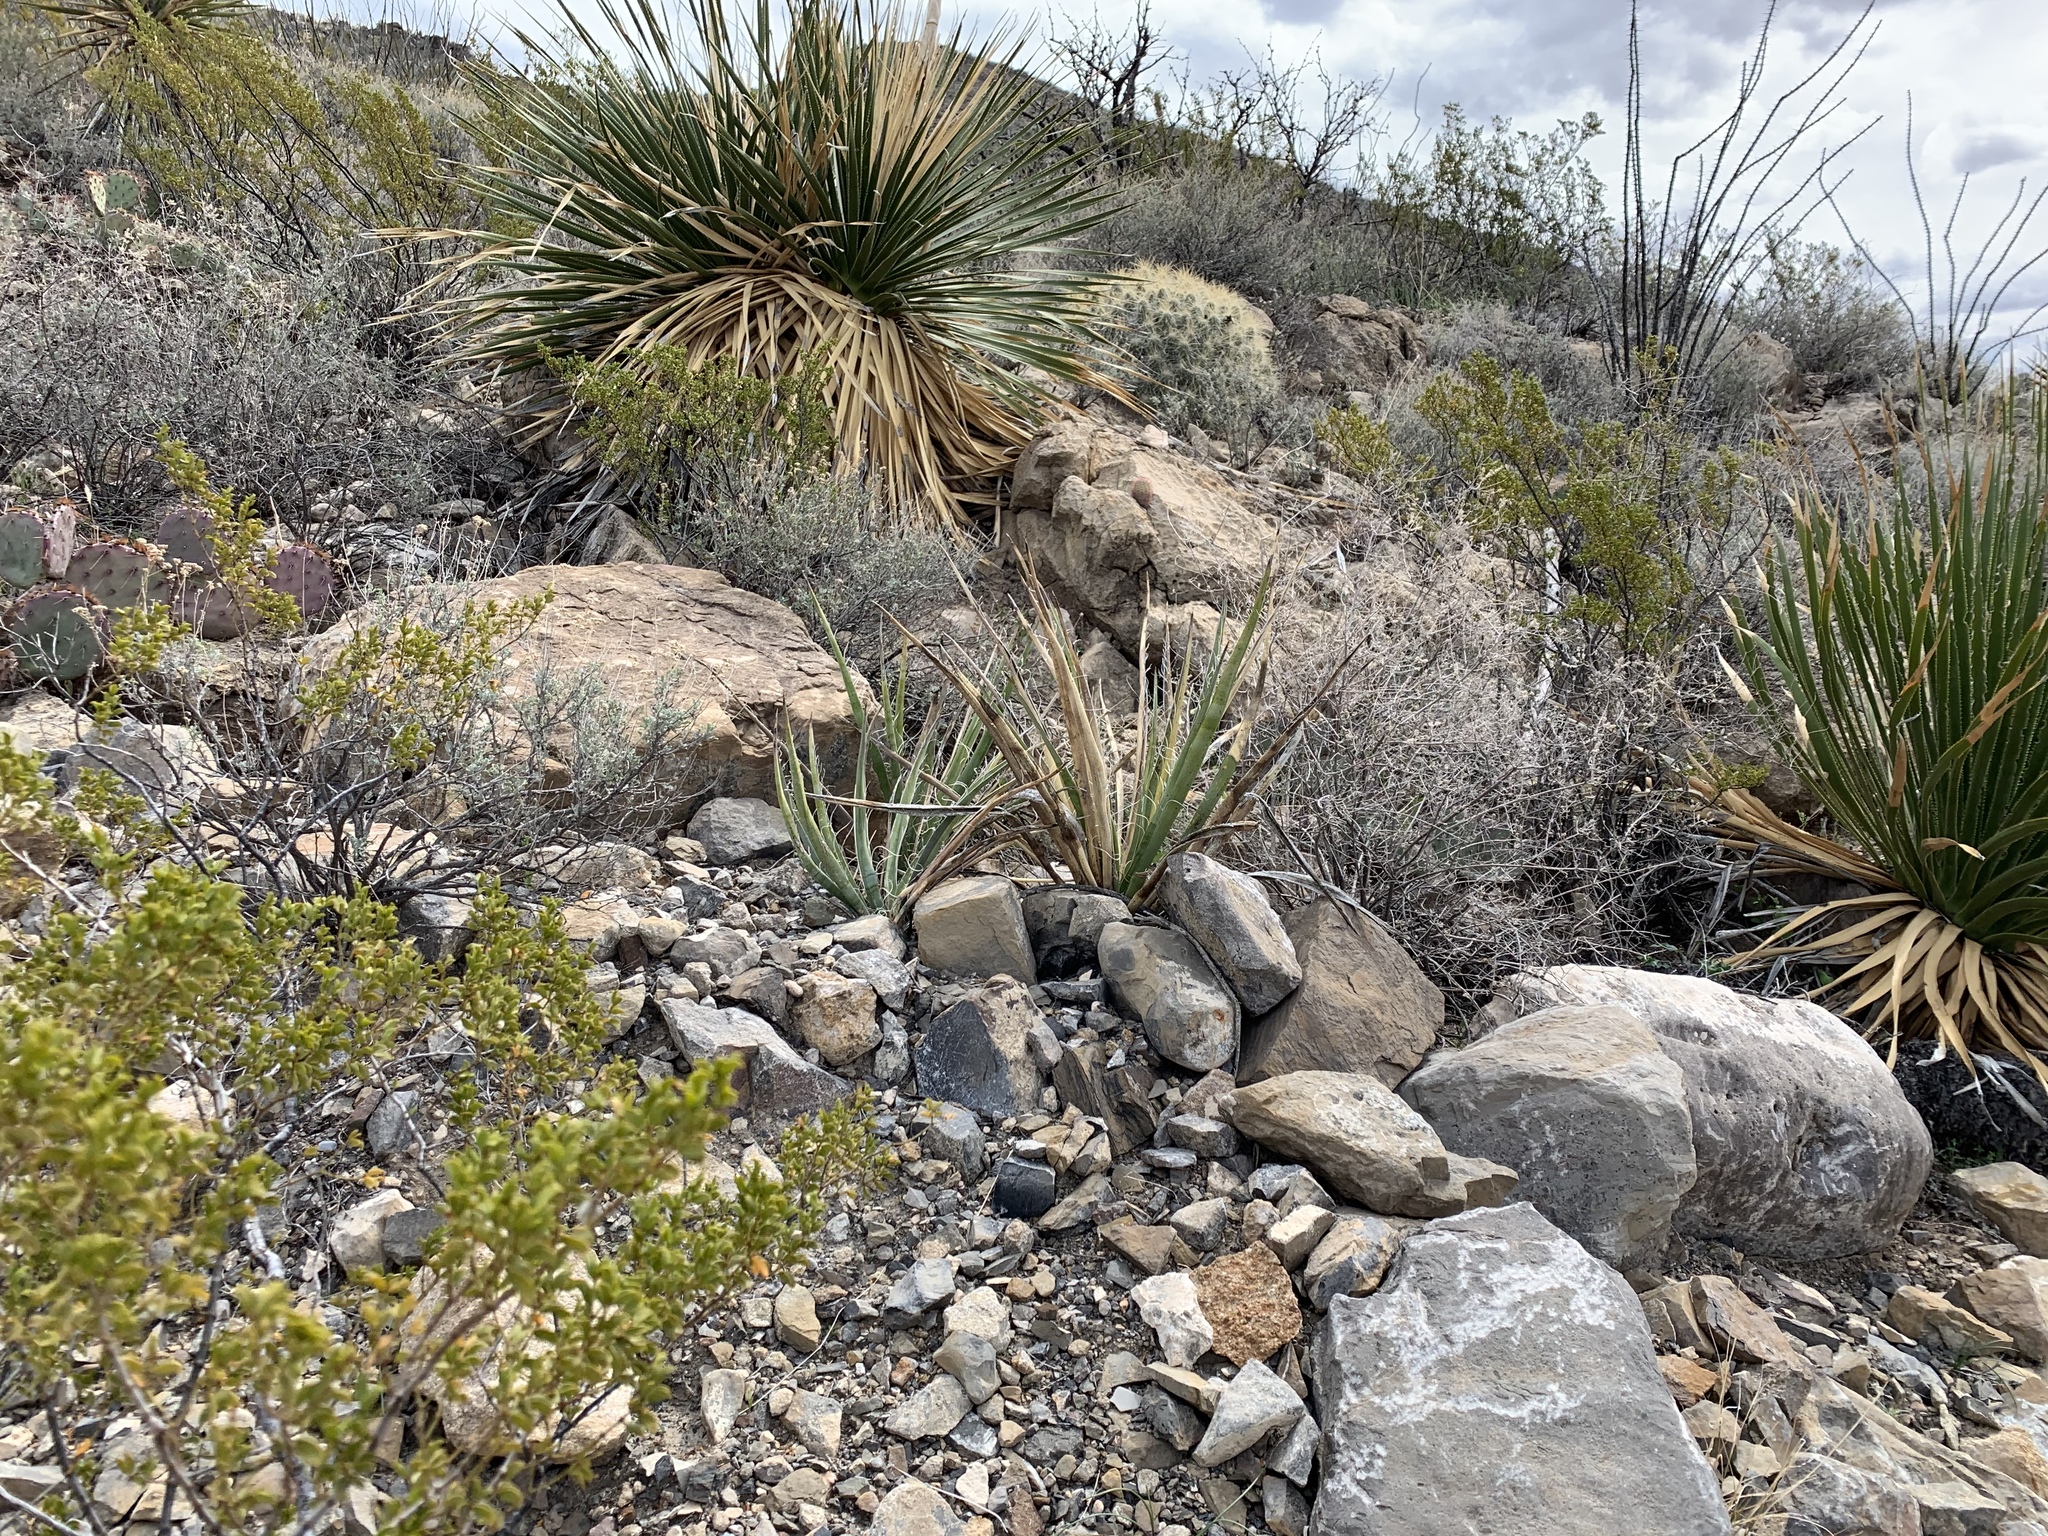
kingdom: Plantae
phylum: Tracheophyta
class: Liliopsida
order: Asparagales
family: Asparagaceae
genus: Yucca
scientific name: Yucca baccata
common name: Banana yucca
